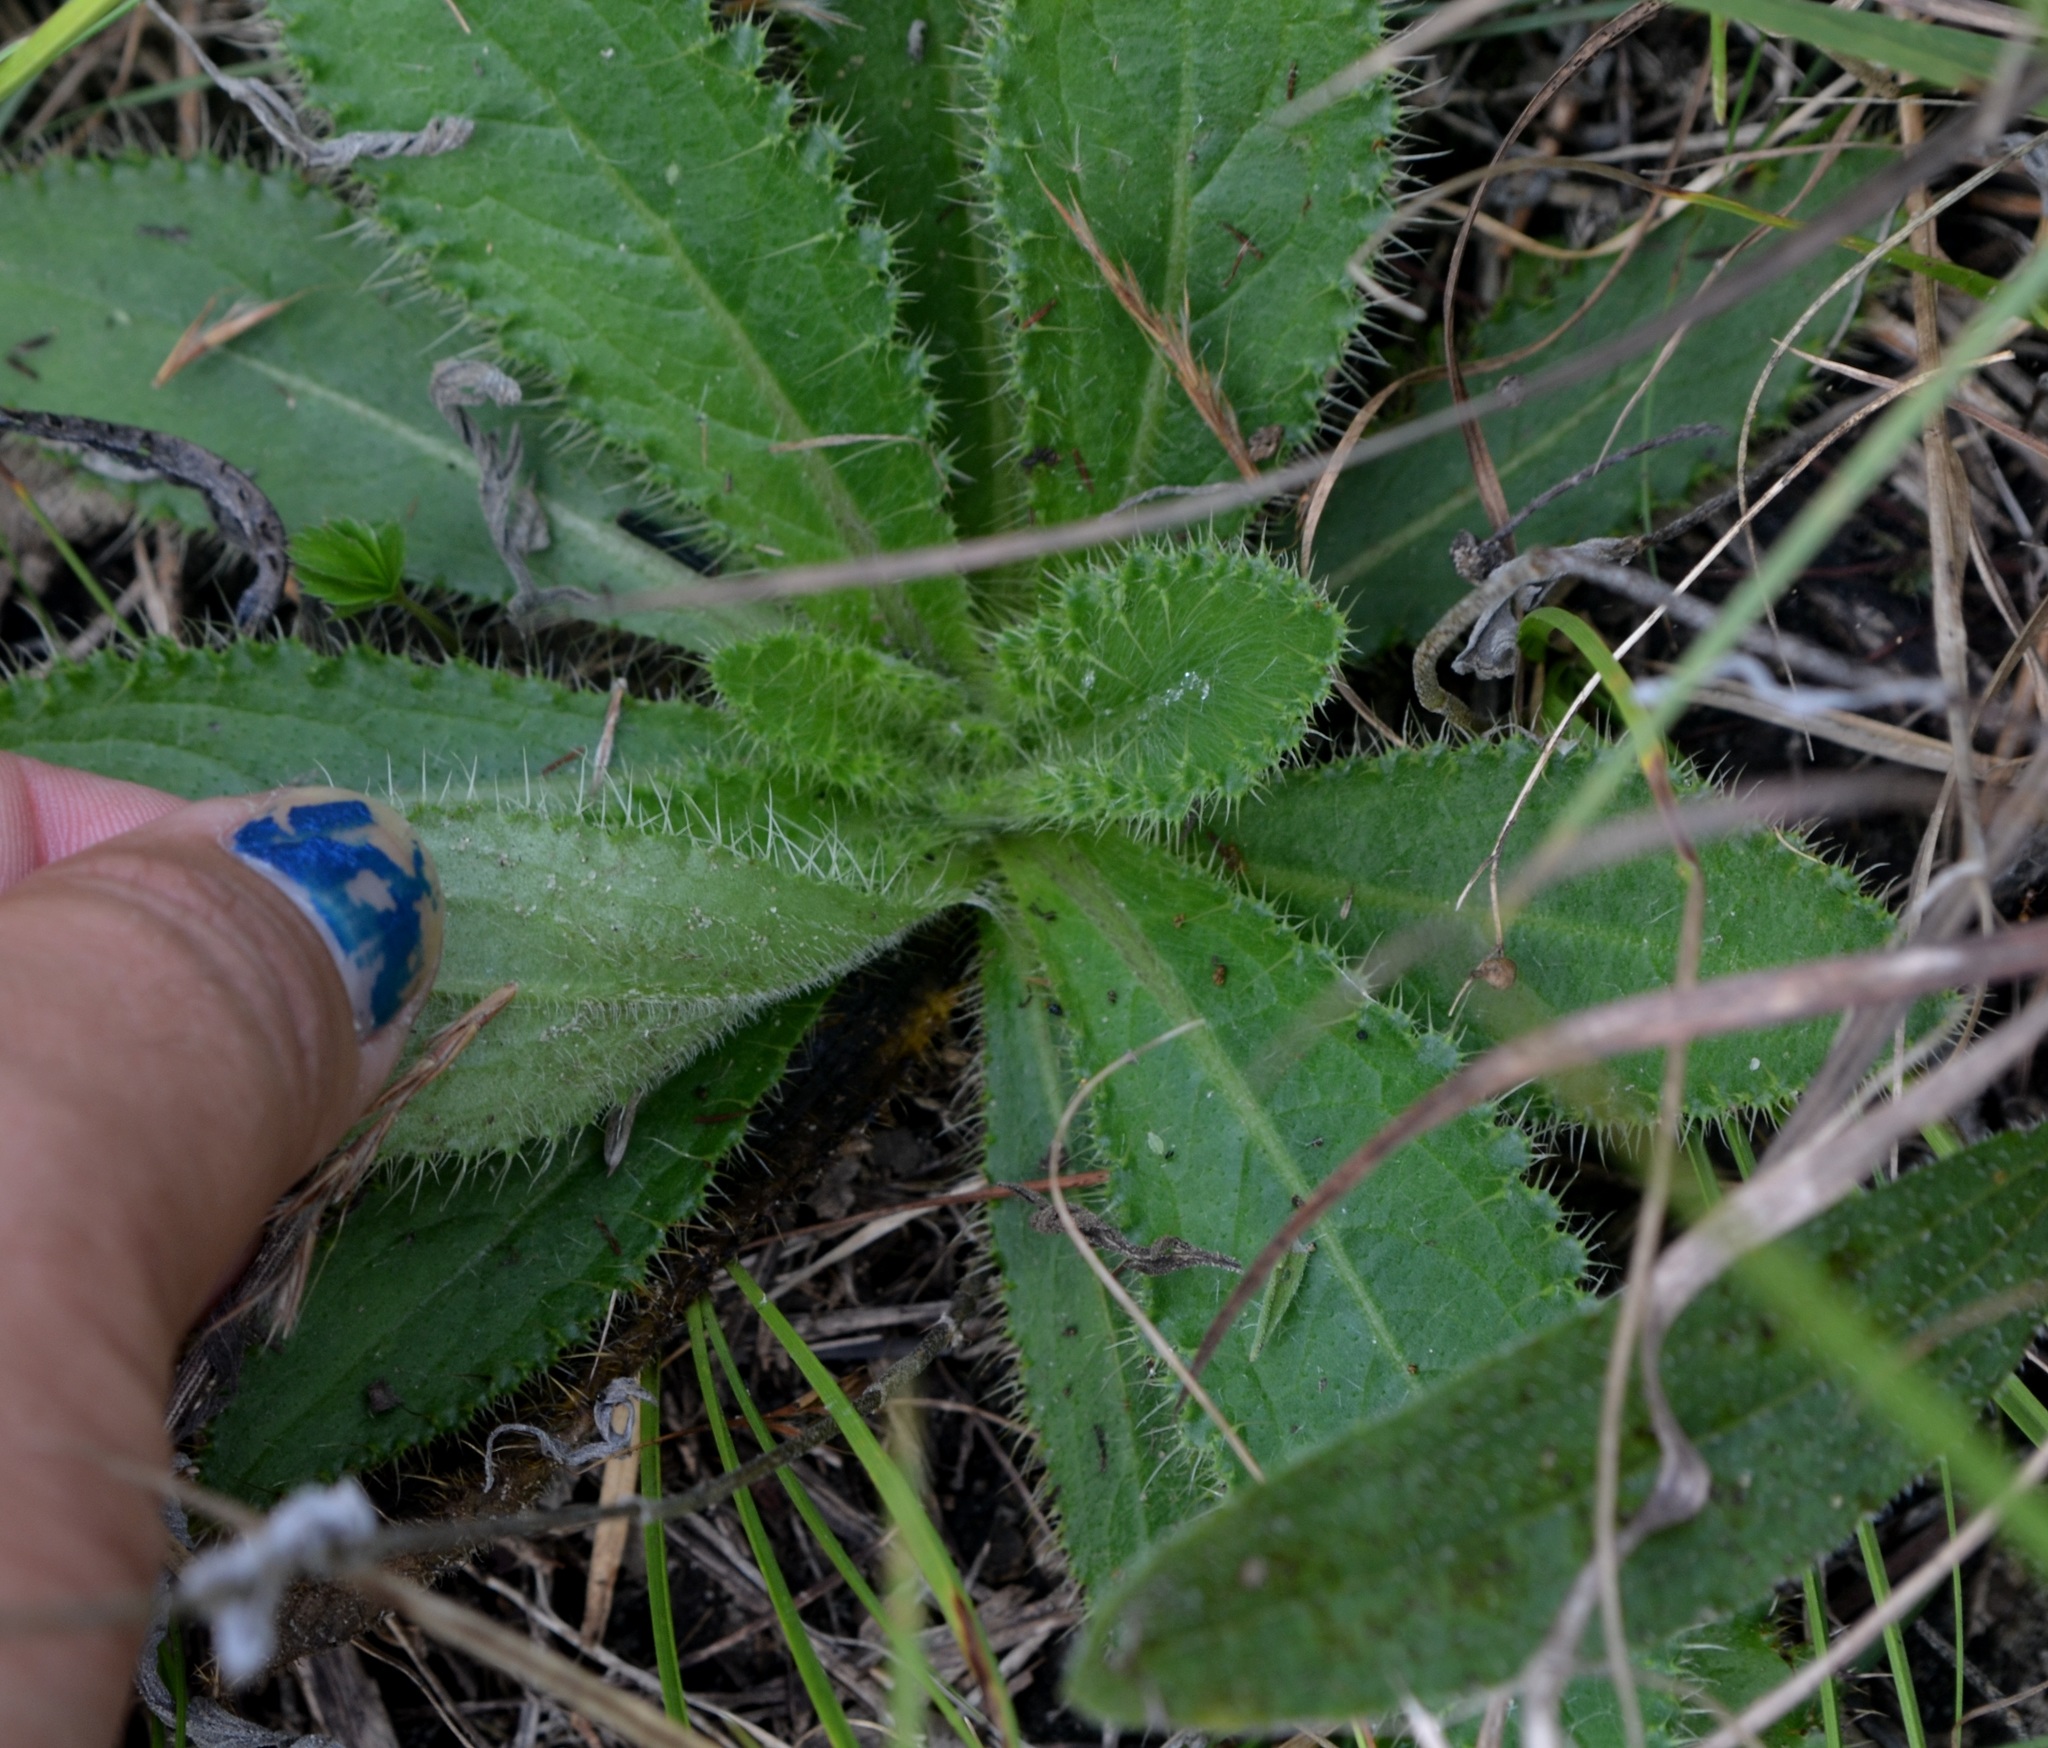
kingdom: Plantae
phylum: Tracheophyta
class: Magnoliopsida
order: Asterales
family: Asteraceae
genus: Cirsium
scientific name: Cirsium pumilum
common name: Pasture thistle
